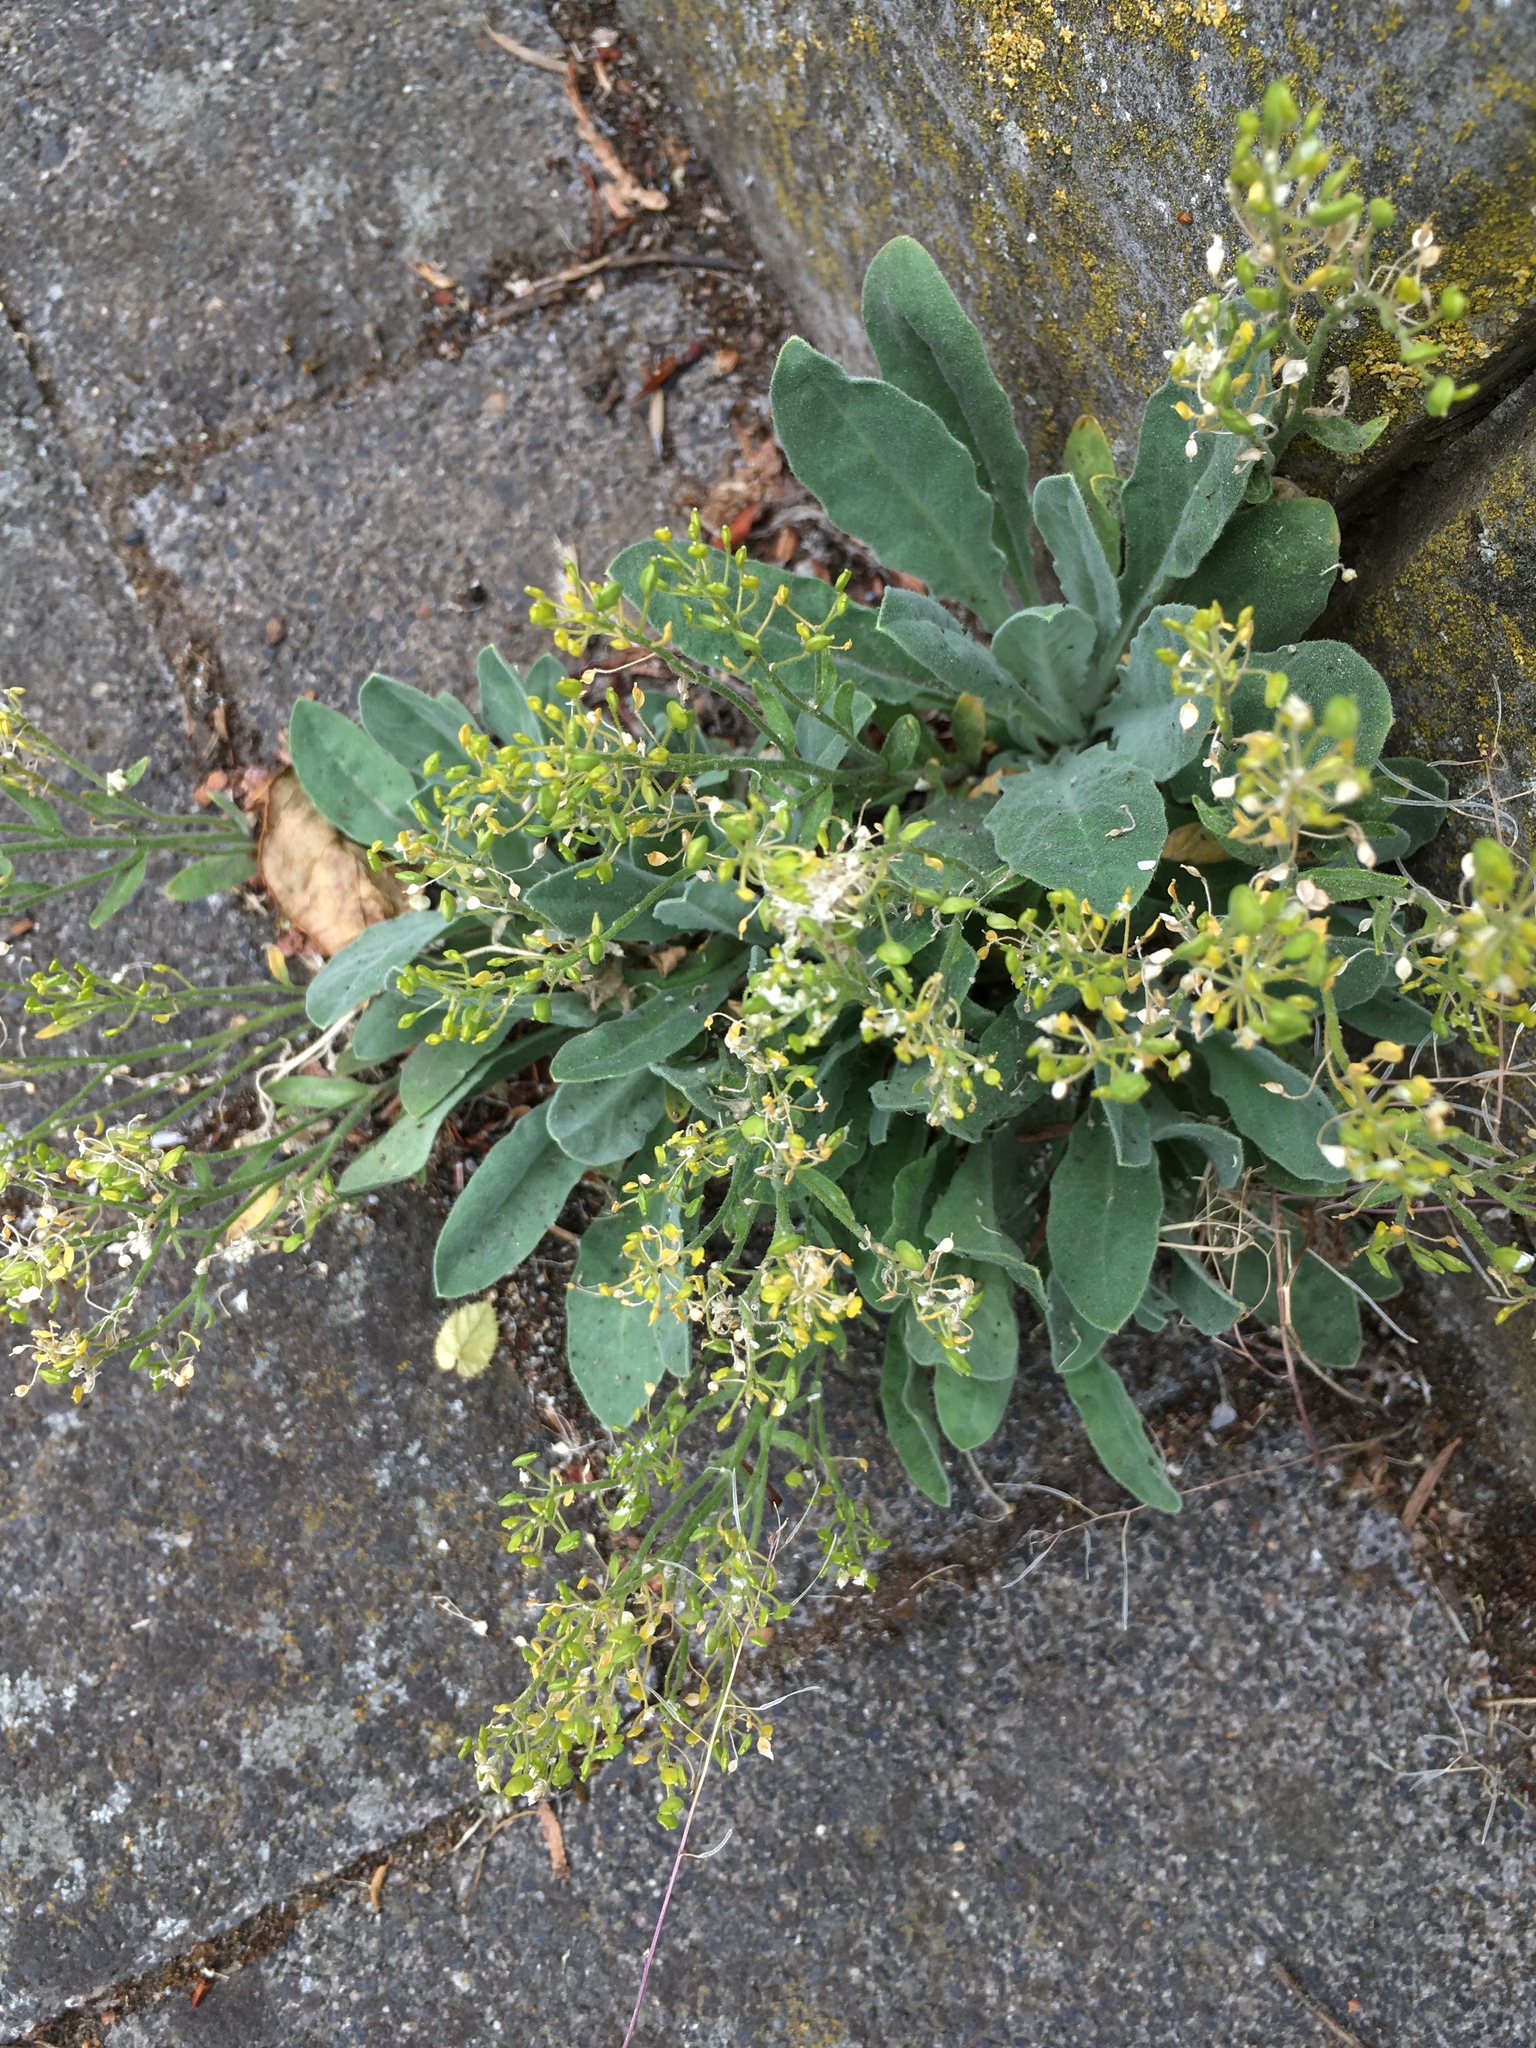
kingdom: Plantae
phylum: Tracheophyta
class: Magnoliopsida
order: Brassicales
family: Brassicaceae
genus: Aurinia
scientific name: Aurinia saxatilis
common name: Golden-tuft alyssum
